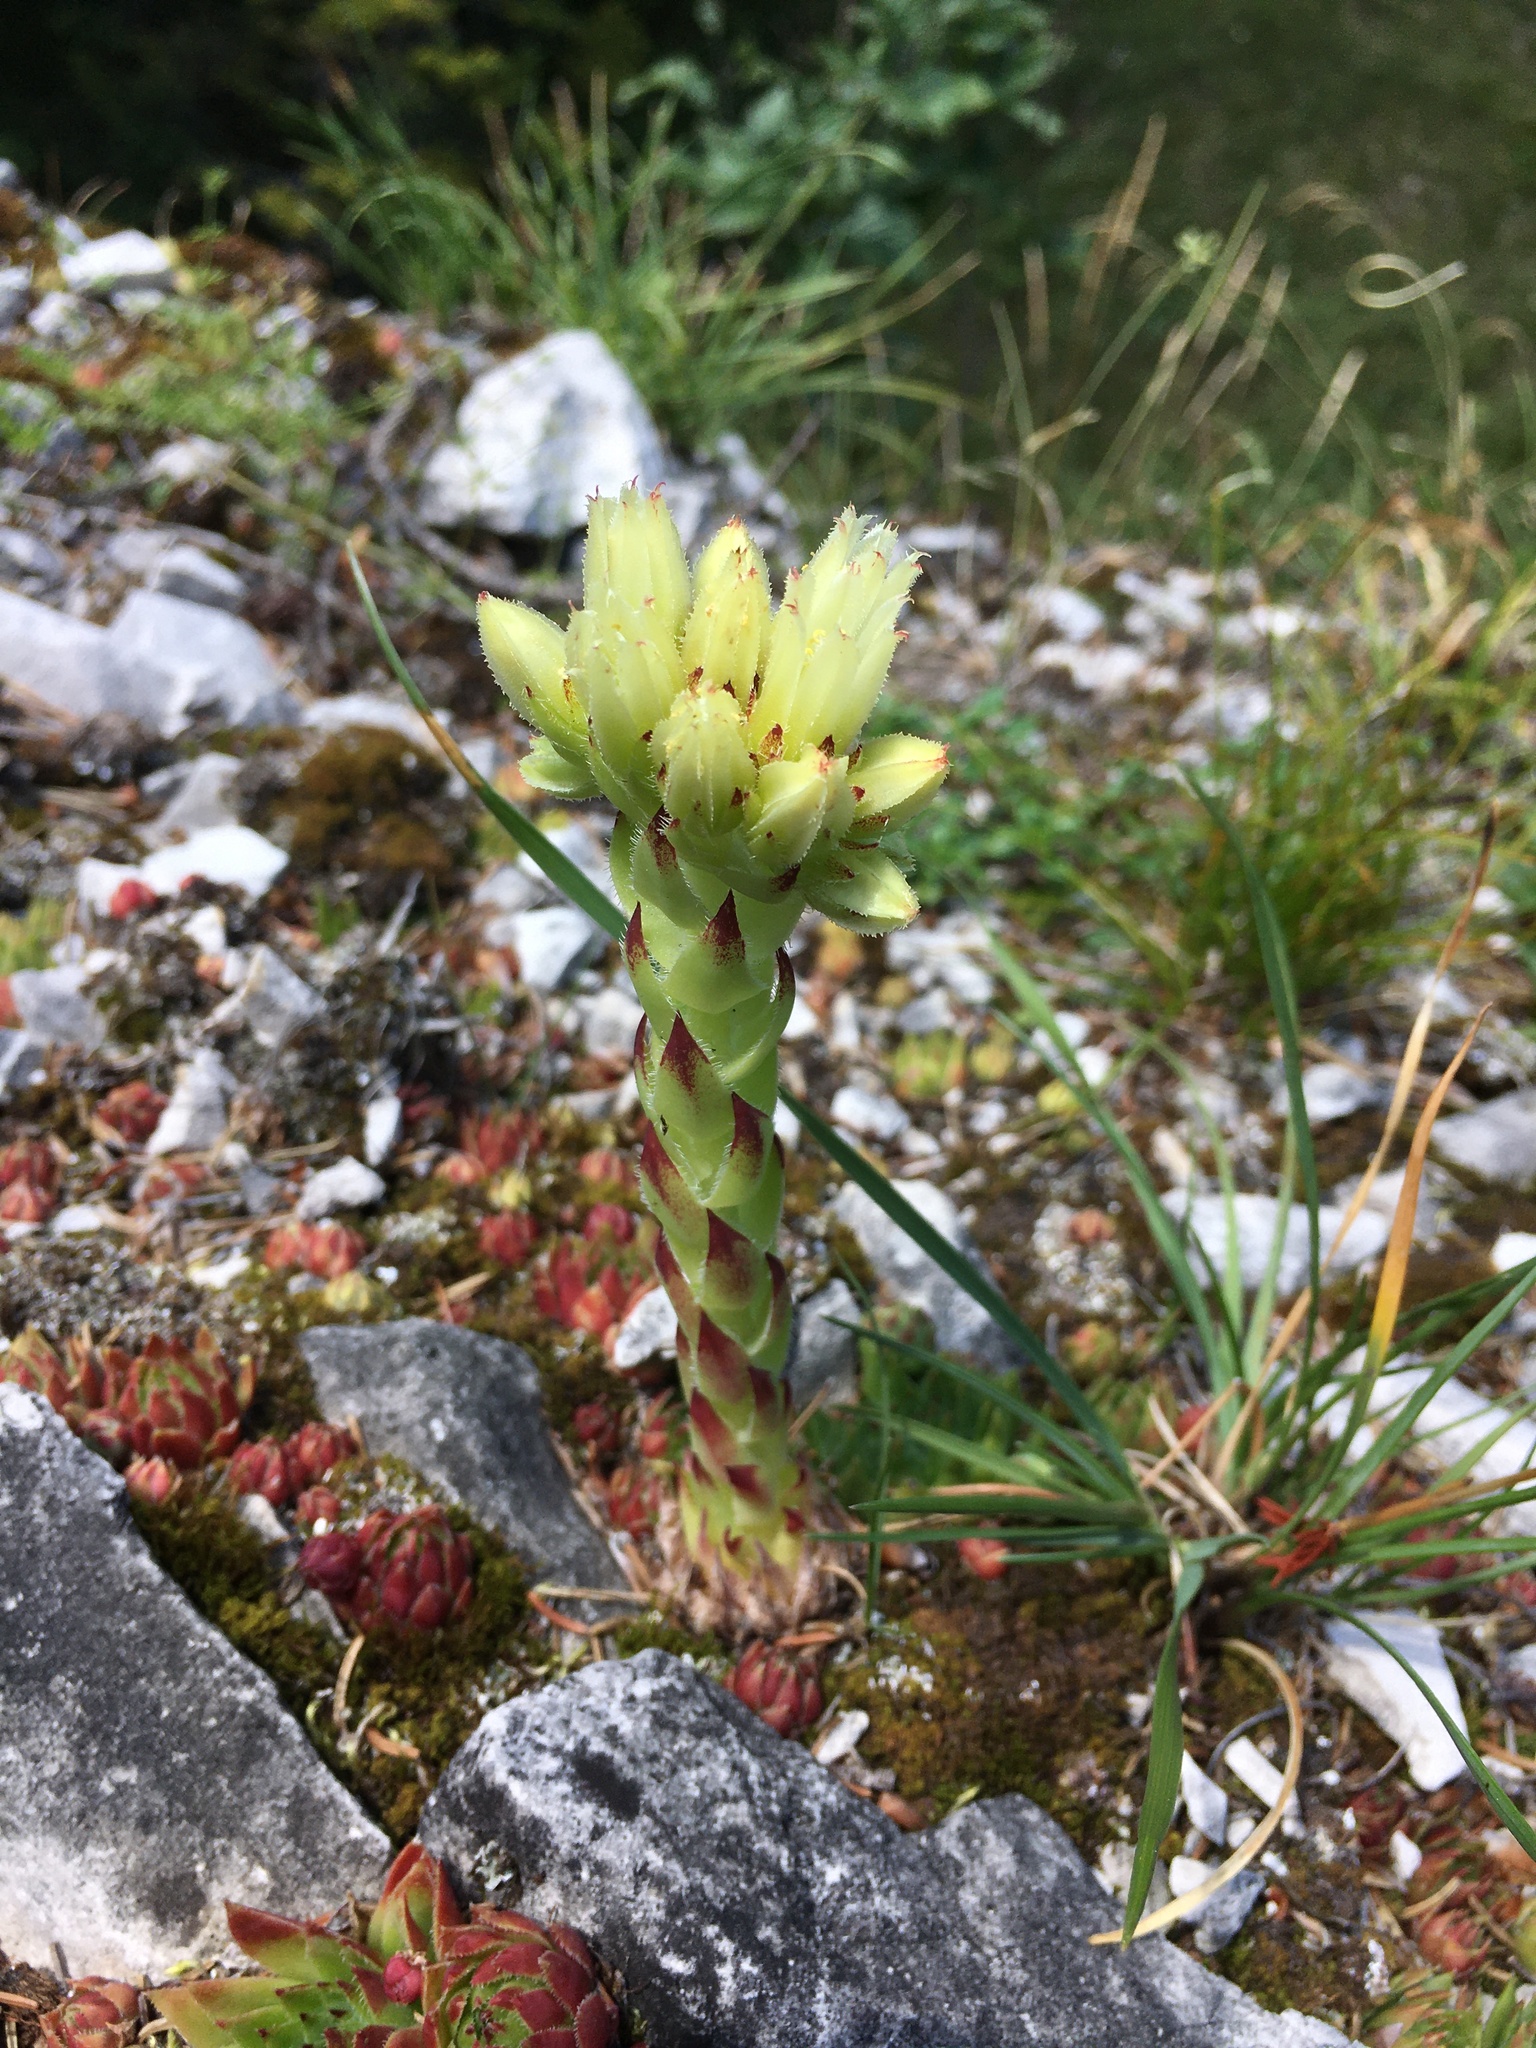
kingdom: Plantae
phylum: Tracheophyta
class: Magnoliopsida
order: Saxifragales
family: Crassulaceae
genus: Sempervivum
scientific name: Sempervivum globiferum
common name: Rolling hen-and-chicks
